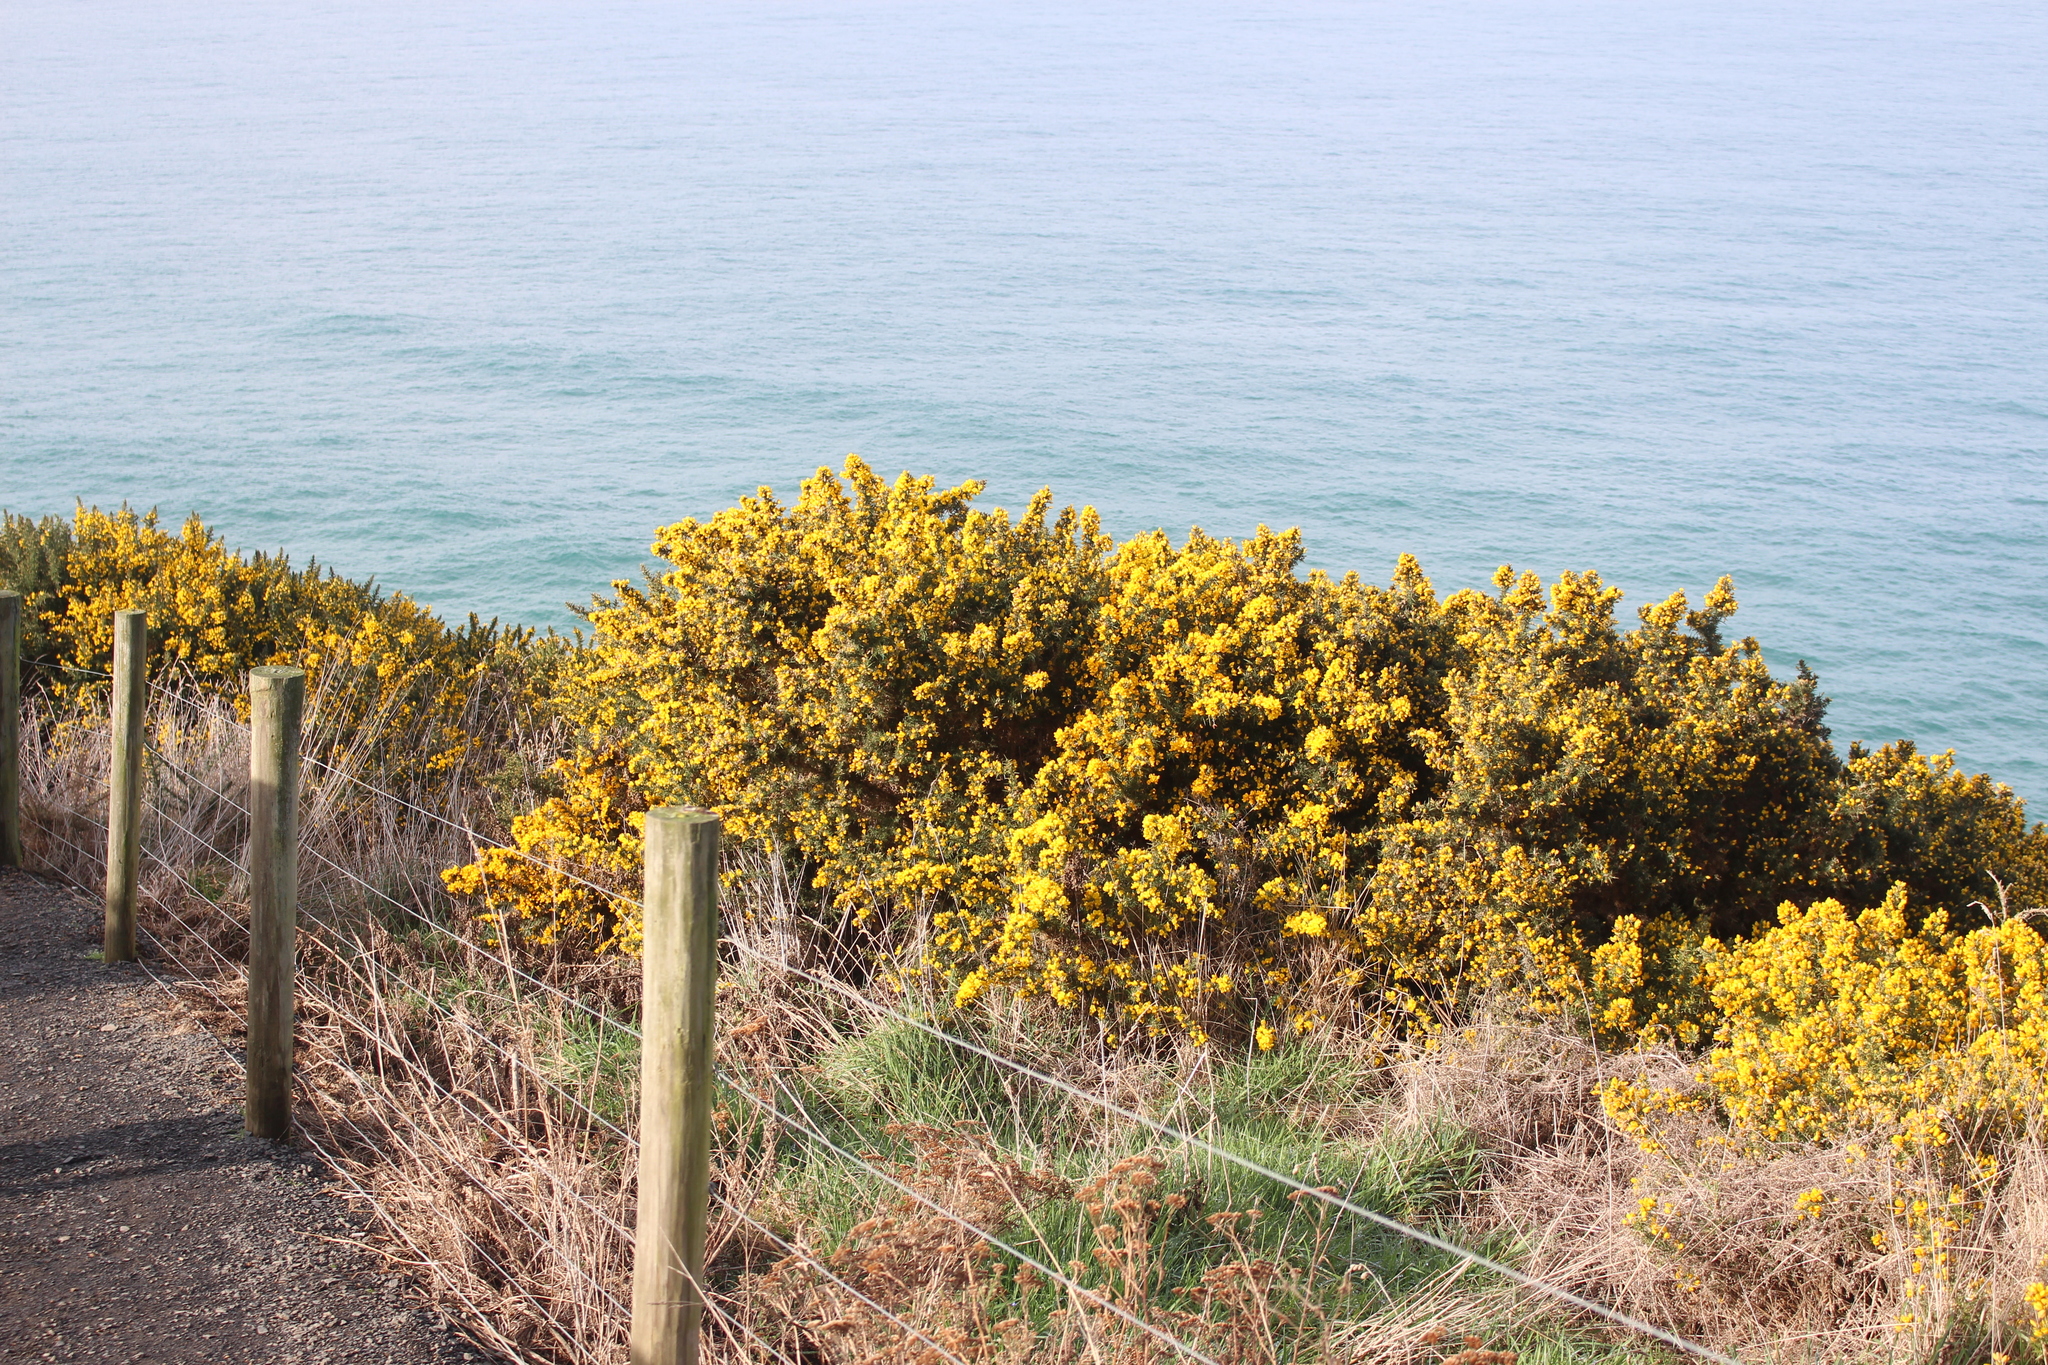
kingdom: Plantae
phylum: Tracheophyta
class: Magnoliopsida
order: Fabales
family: Fabaceae
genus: Ulex
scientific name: Ulex europaeus
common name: Common gorse
